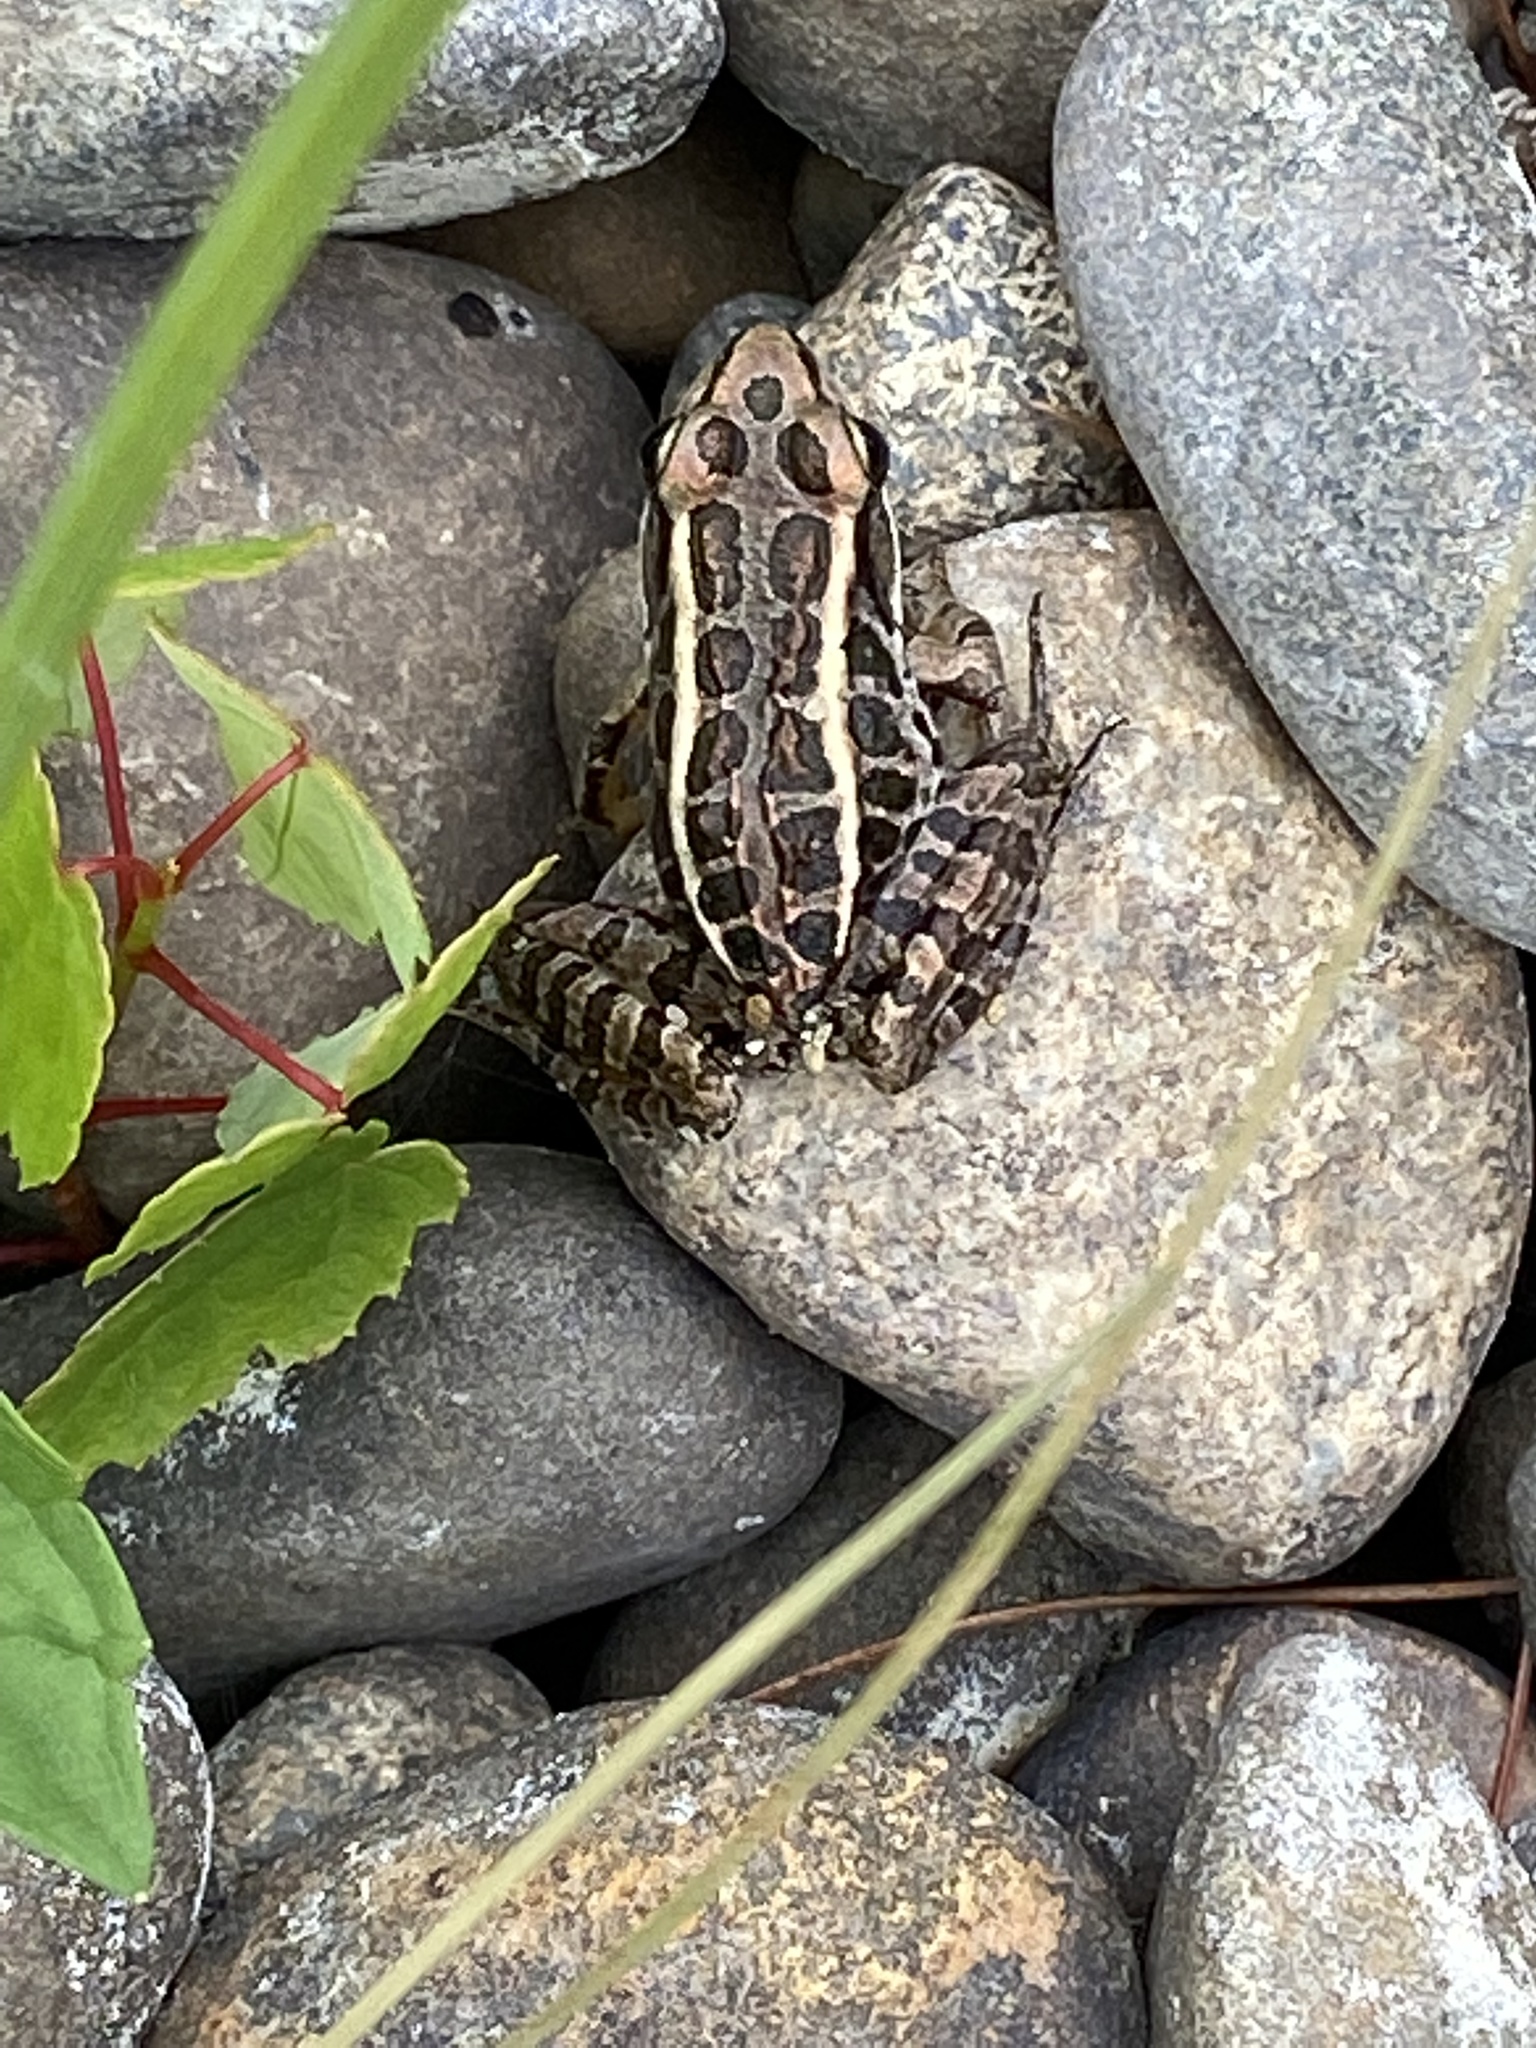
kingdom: Animalia
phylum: Chordata
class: Amphibia
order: Anura
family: Ranidae
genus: Lithobates
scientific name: Lithobates palustris
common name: Pickerel frog
